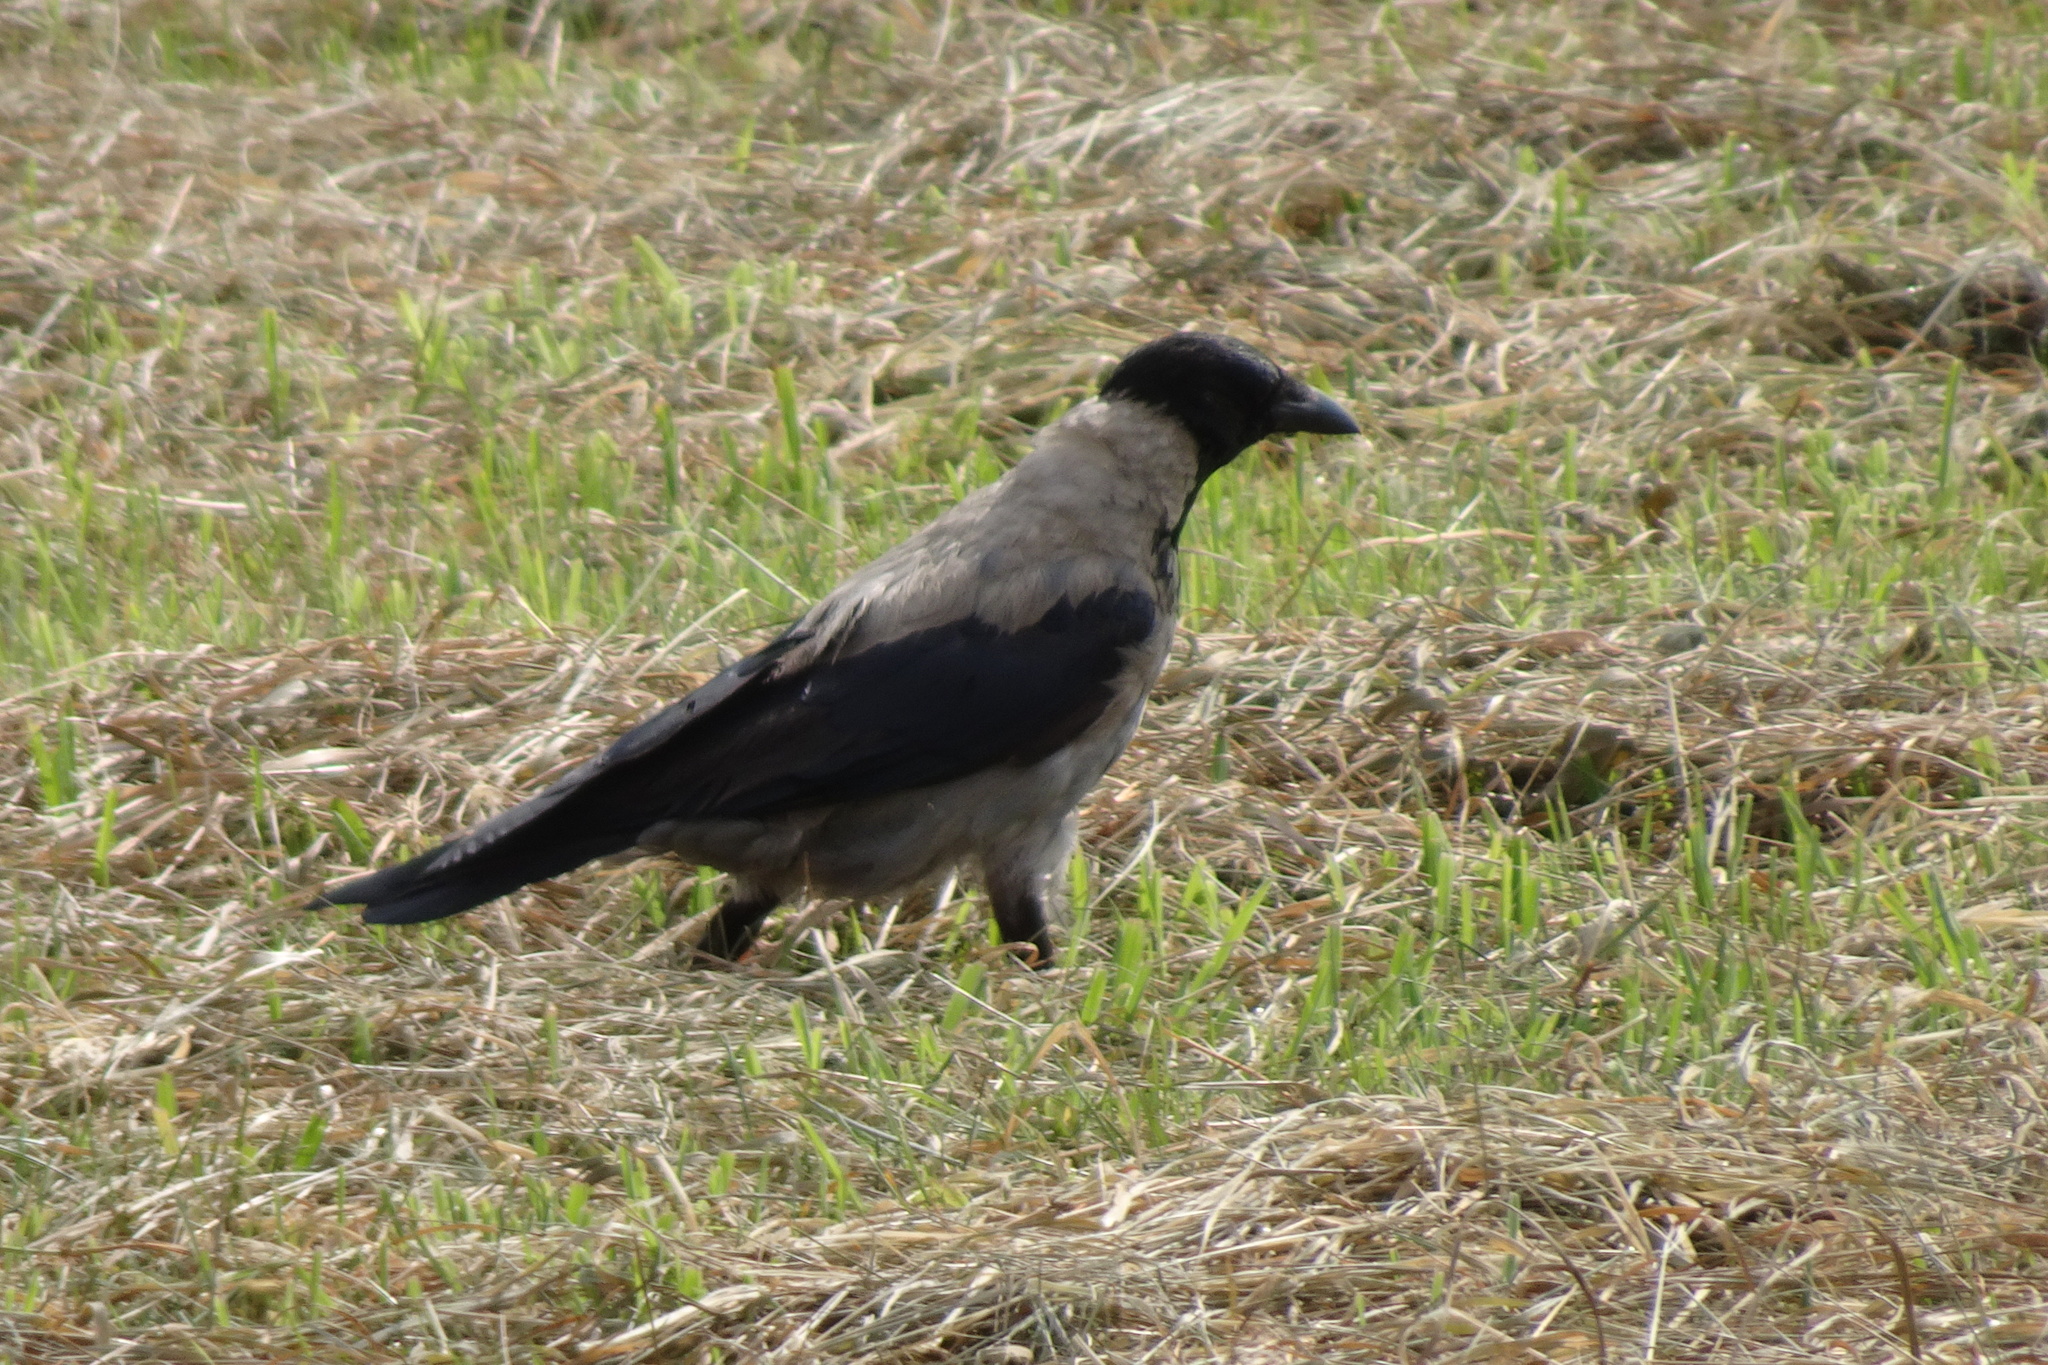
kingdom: Animalia
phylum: Chordata
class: Aves
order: Passeriformes
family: Corvidae
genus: Corvus
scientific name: Corvus cornix
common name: Hooded crow
